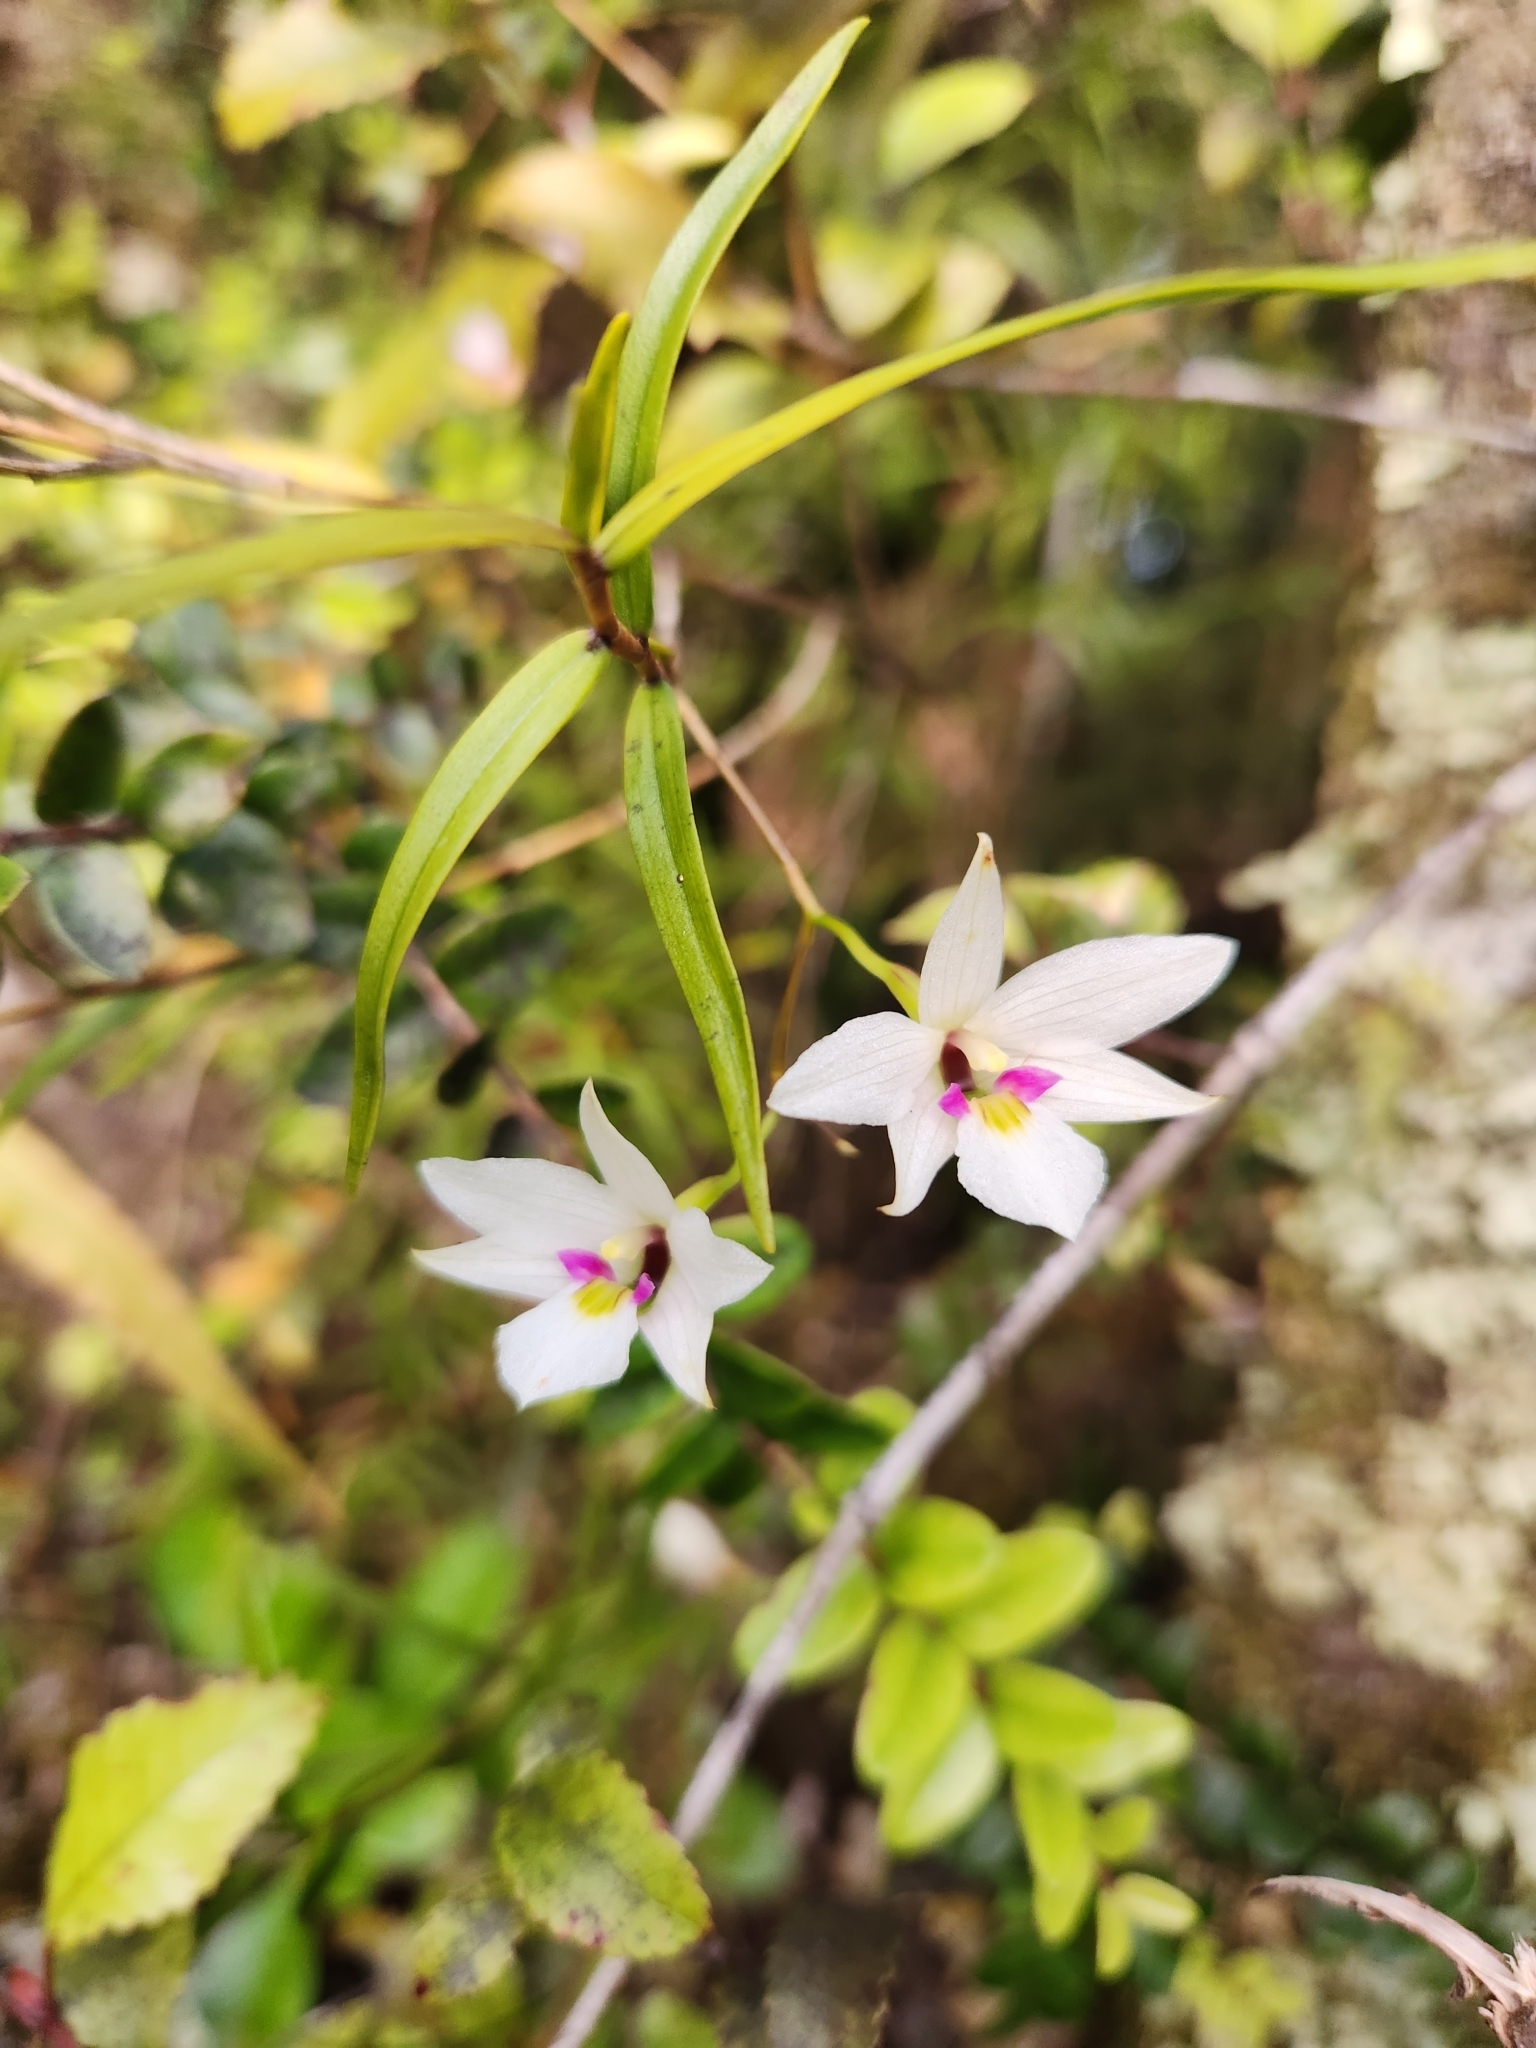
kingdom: Plantae
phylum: Tracheophyta
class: Liliopsida
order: Asparagales
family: Orchidaceae
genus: Dendrobium
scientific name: Dendrobium cunninghamii
